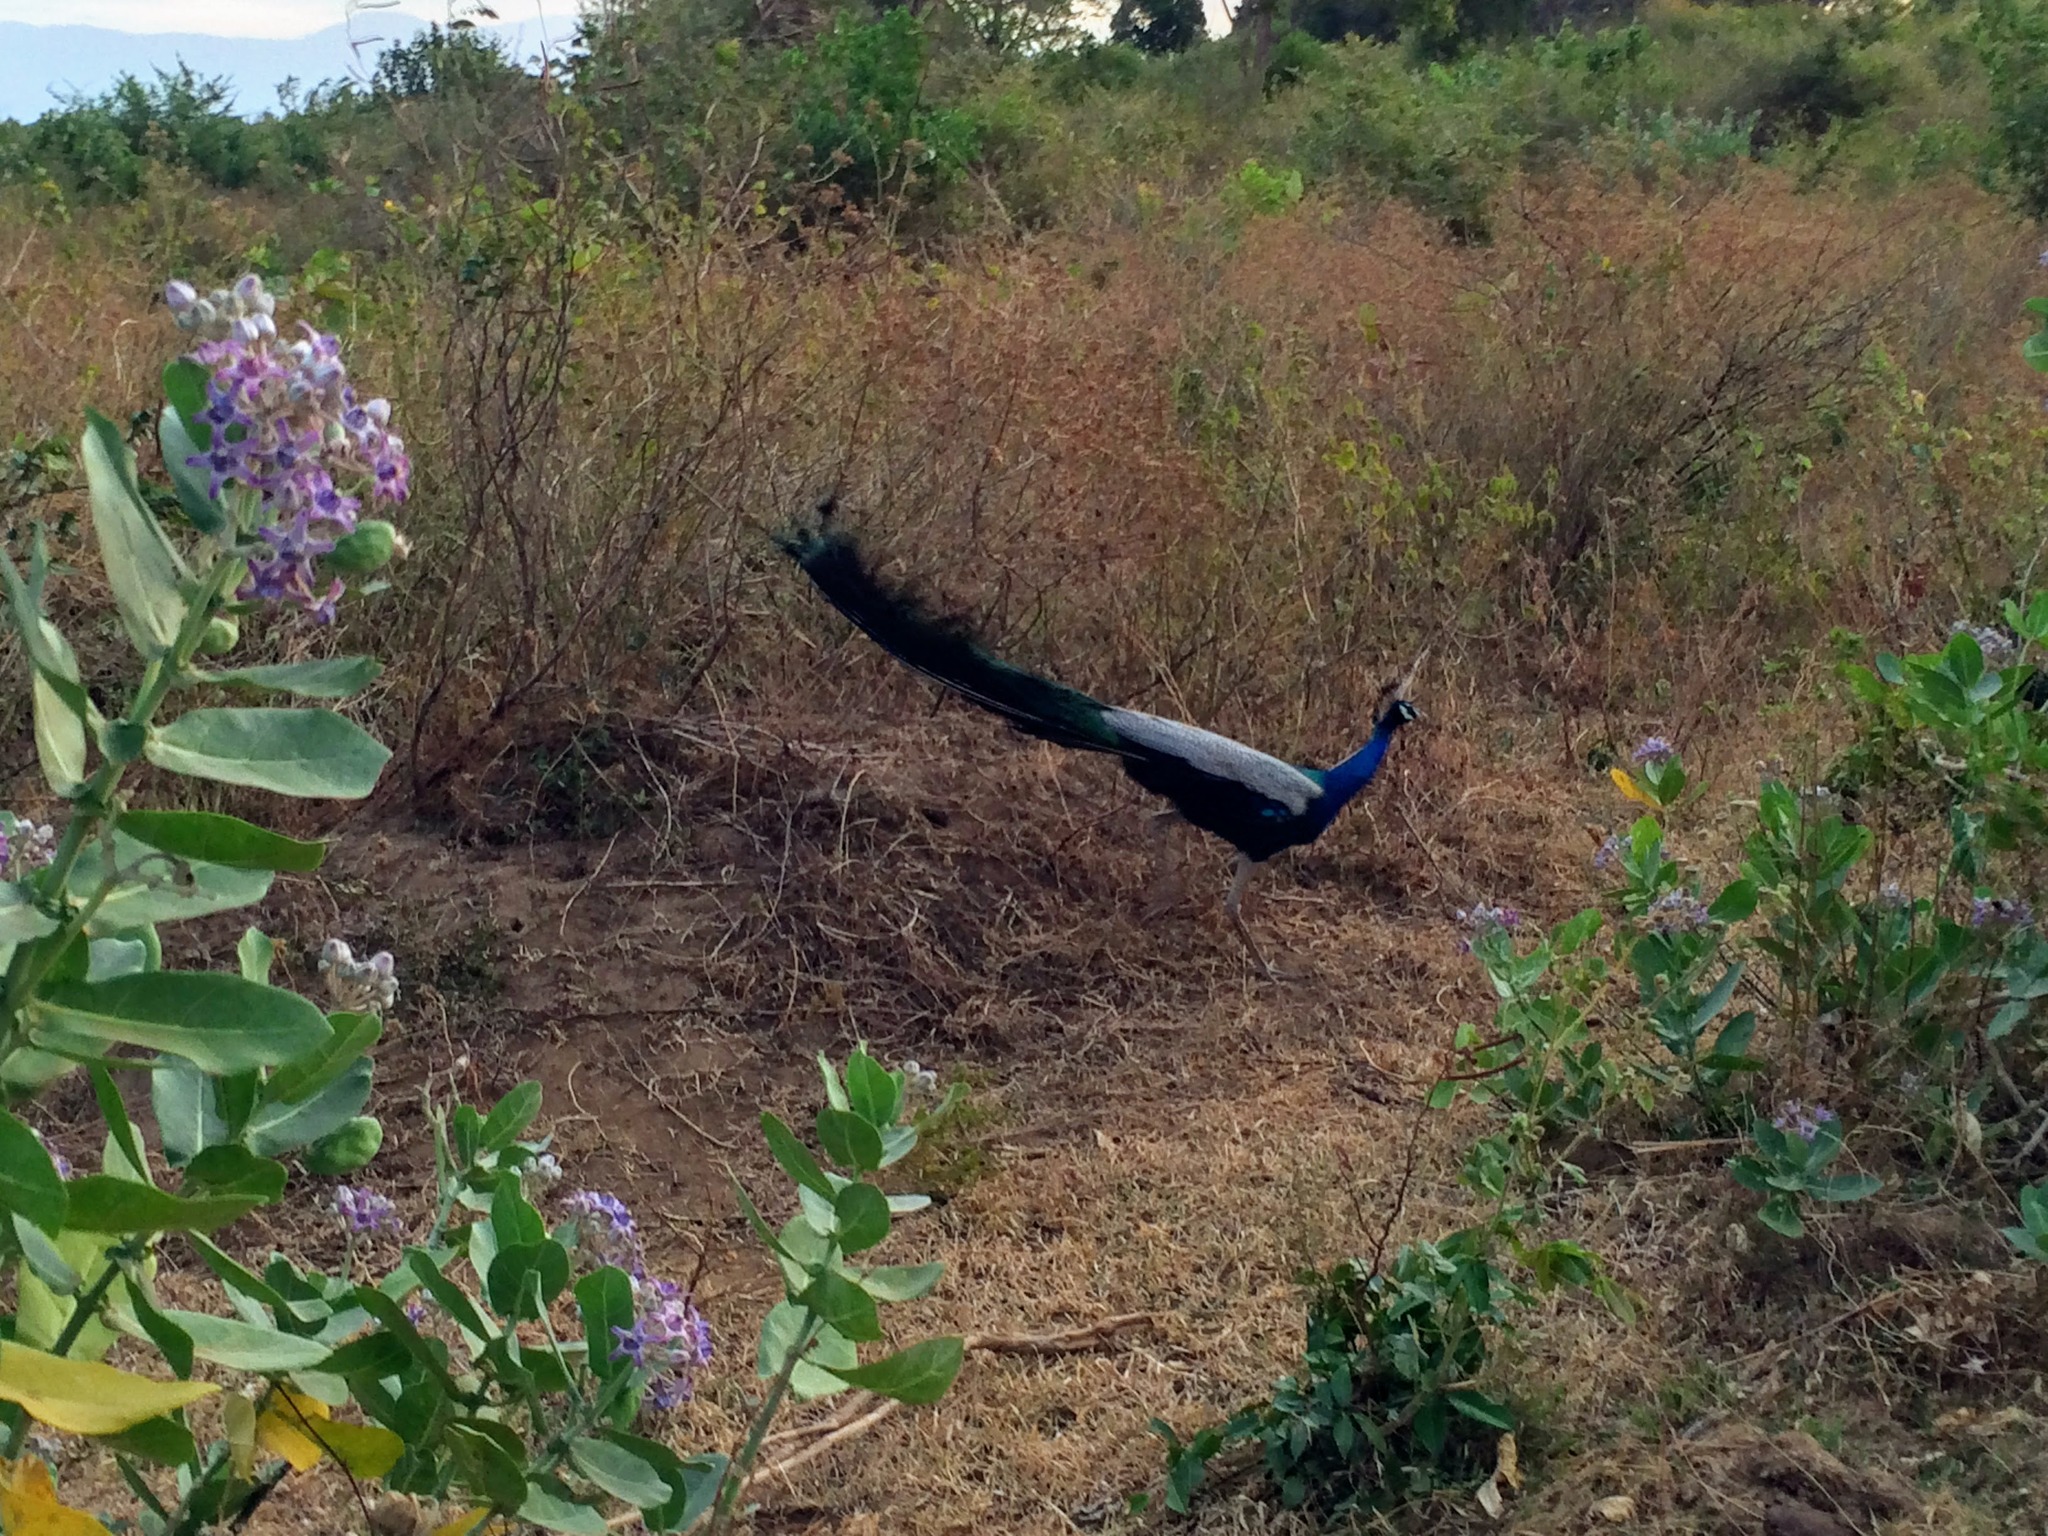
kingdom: Animalia
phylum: Chordata
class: Aves
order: Galliformes
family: Phasianidae
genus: Pavo
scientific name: Pavo cristatus
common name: Indian peafowl
